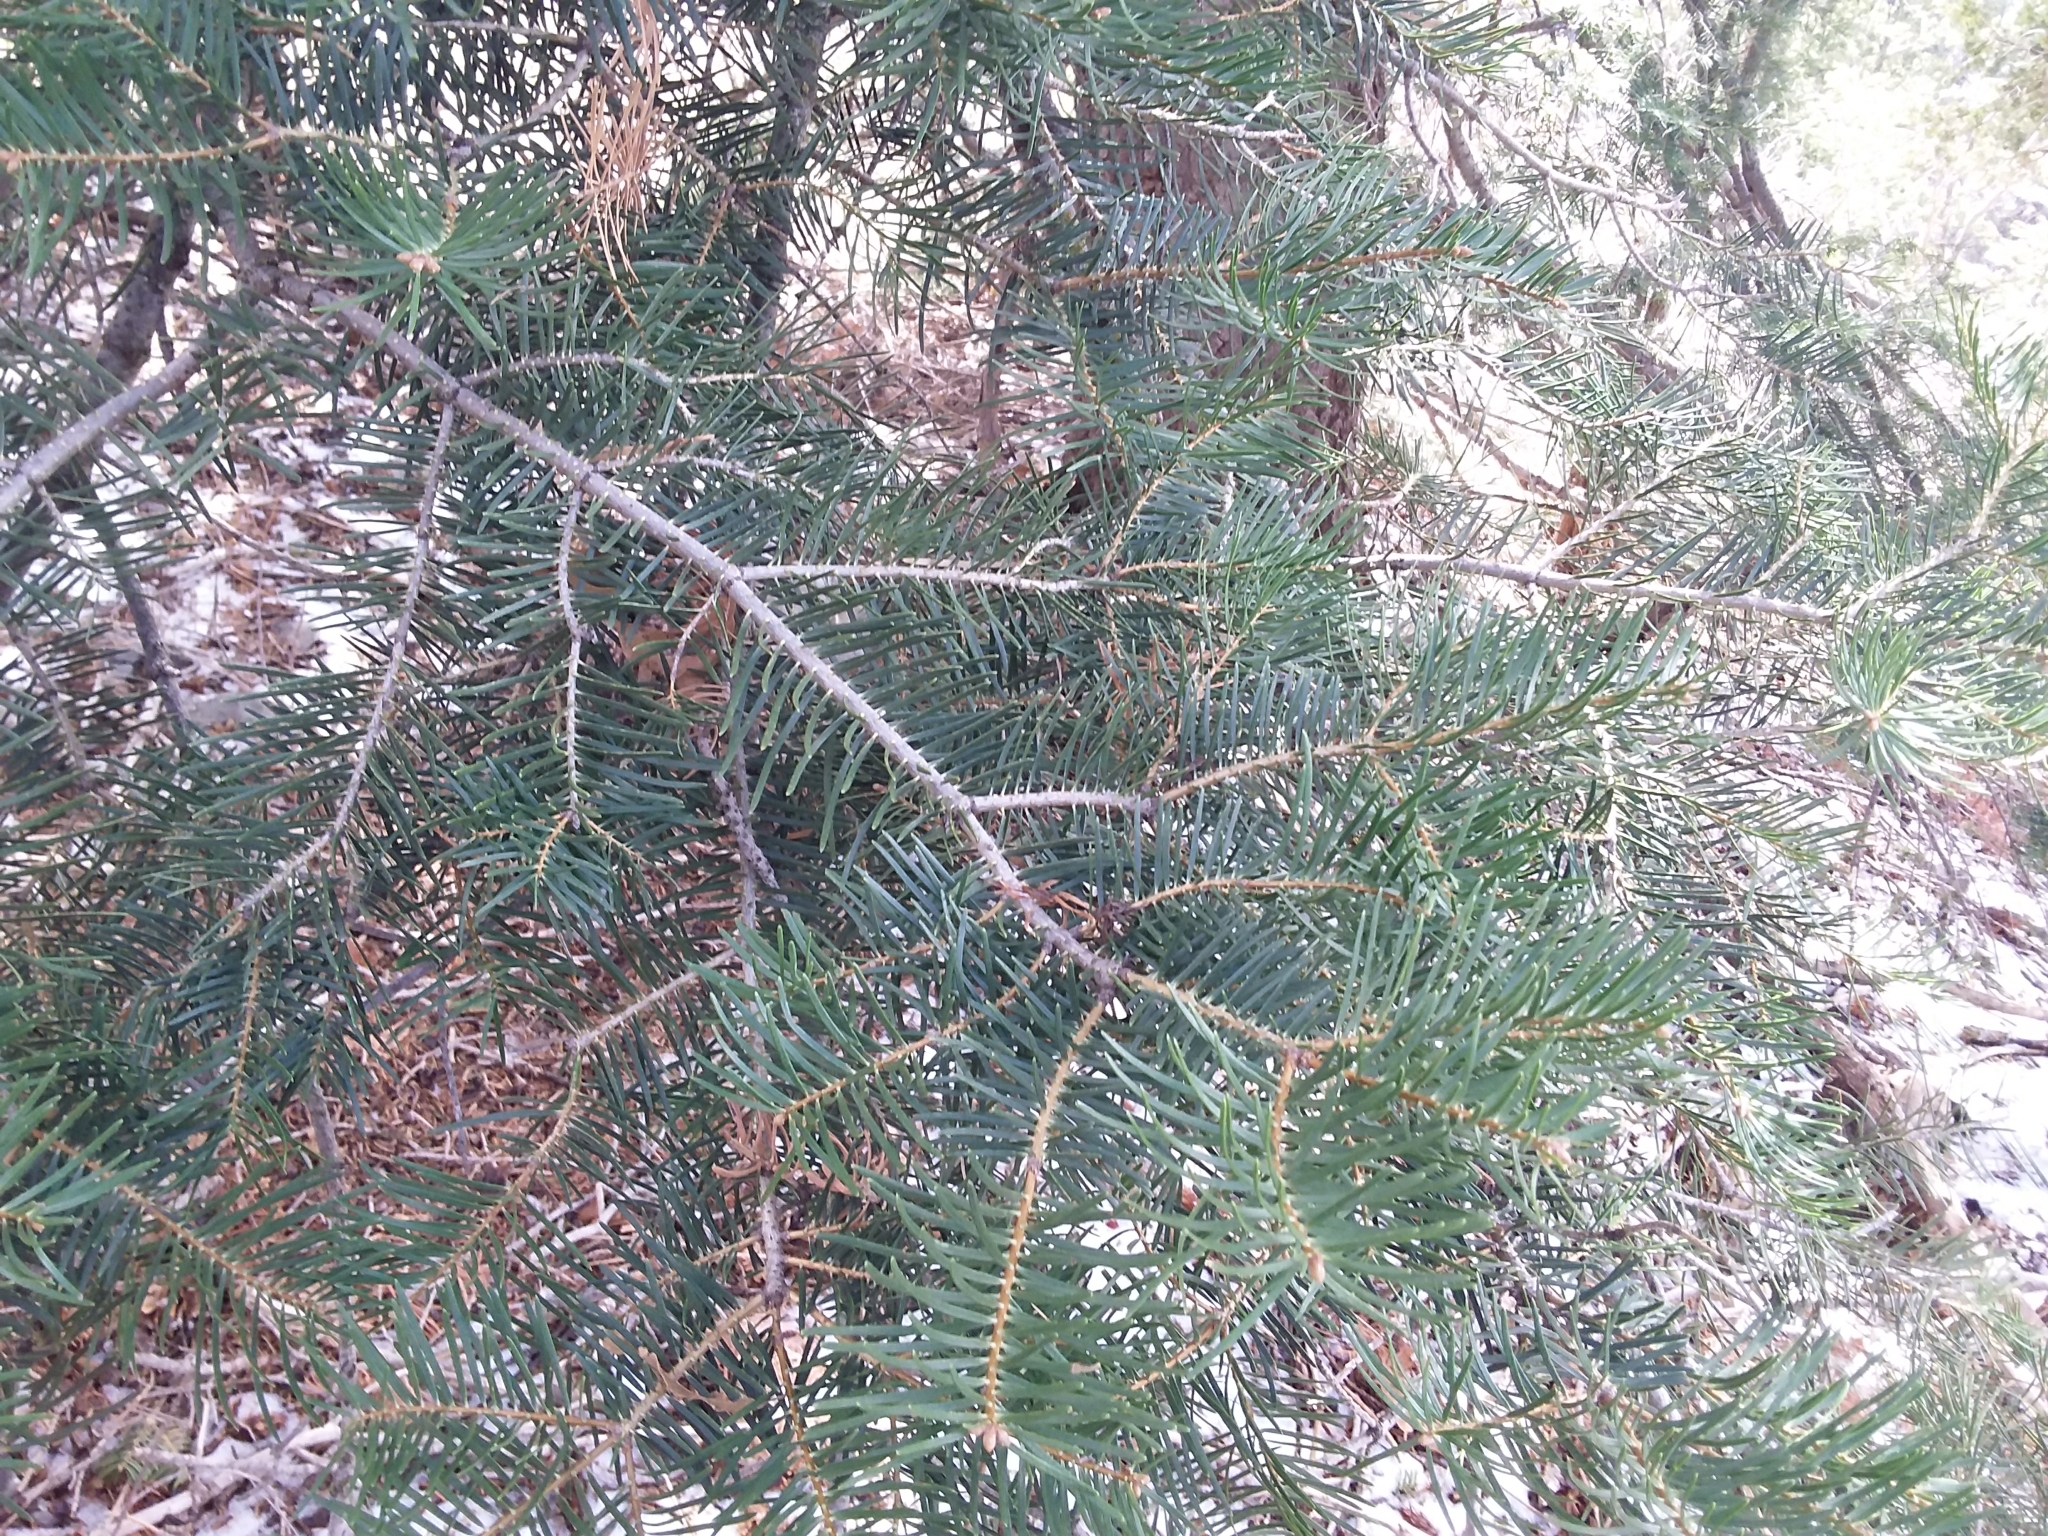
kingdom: Plantae
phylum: Tracheophyta
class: Pinopsida
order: Pinales
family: Pinaceae
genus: Abies
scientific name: Abies concolor
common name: Colorado fir
